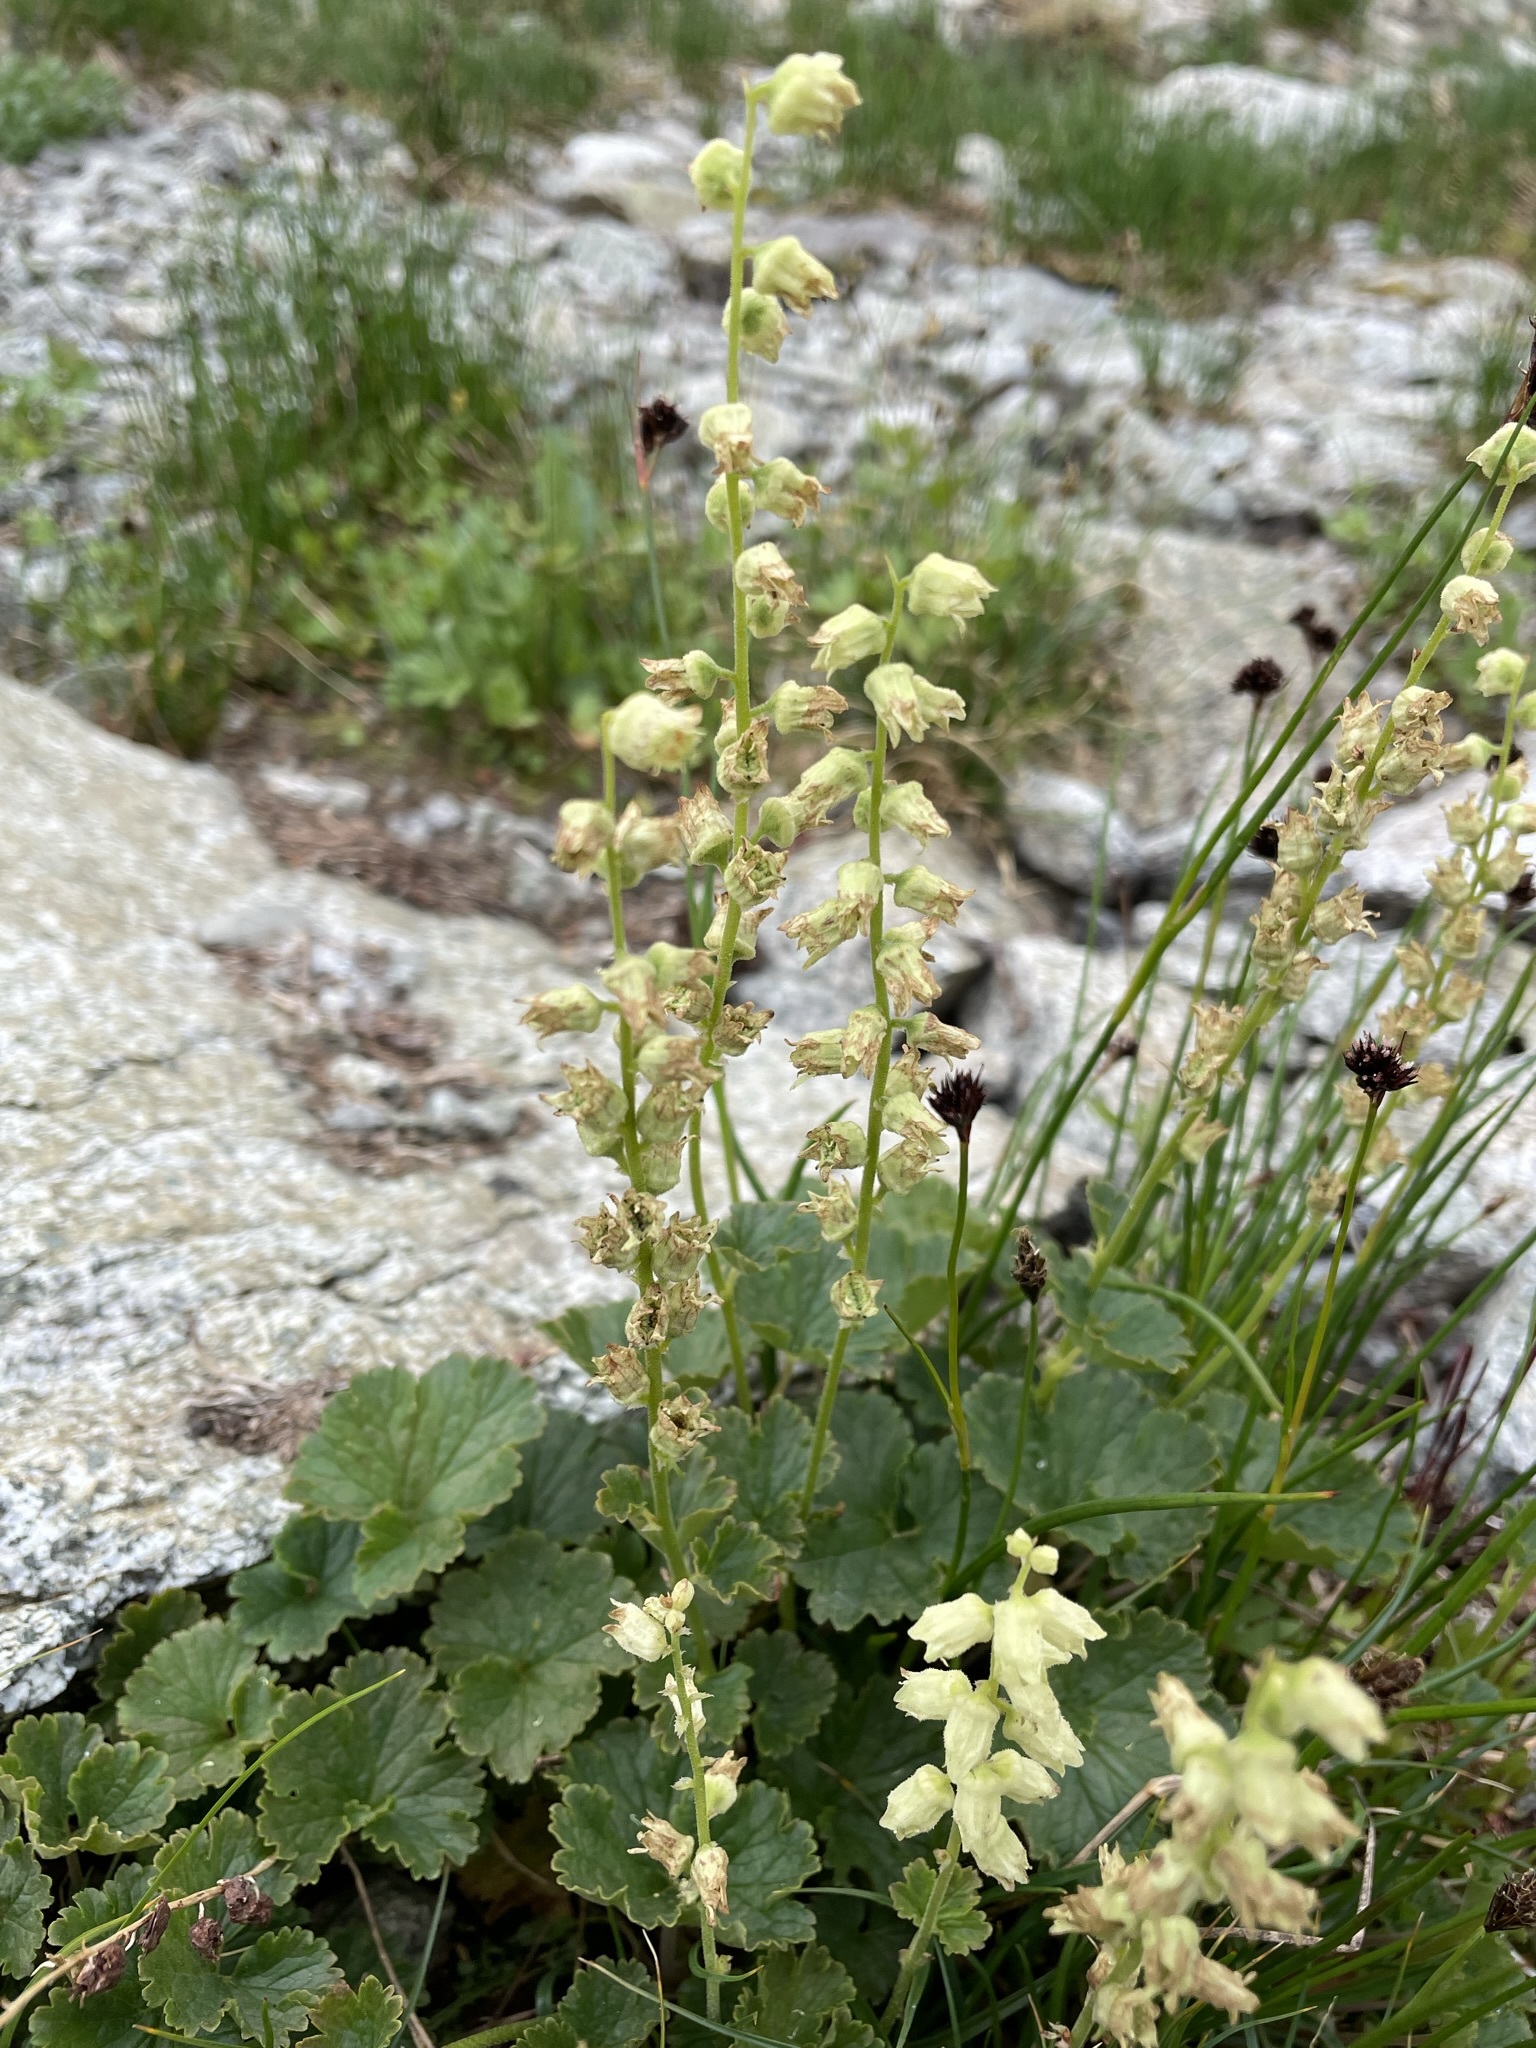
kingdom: Plantae
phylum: Tracheophyta
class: Magnoliopsida
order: Saxifragales
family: Saxifragaceae
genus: Elmera
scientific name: Elmera racemosa
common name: Elmera
